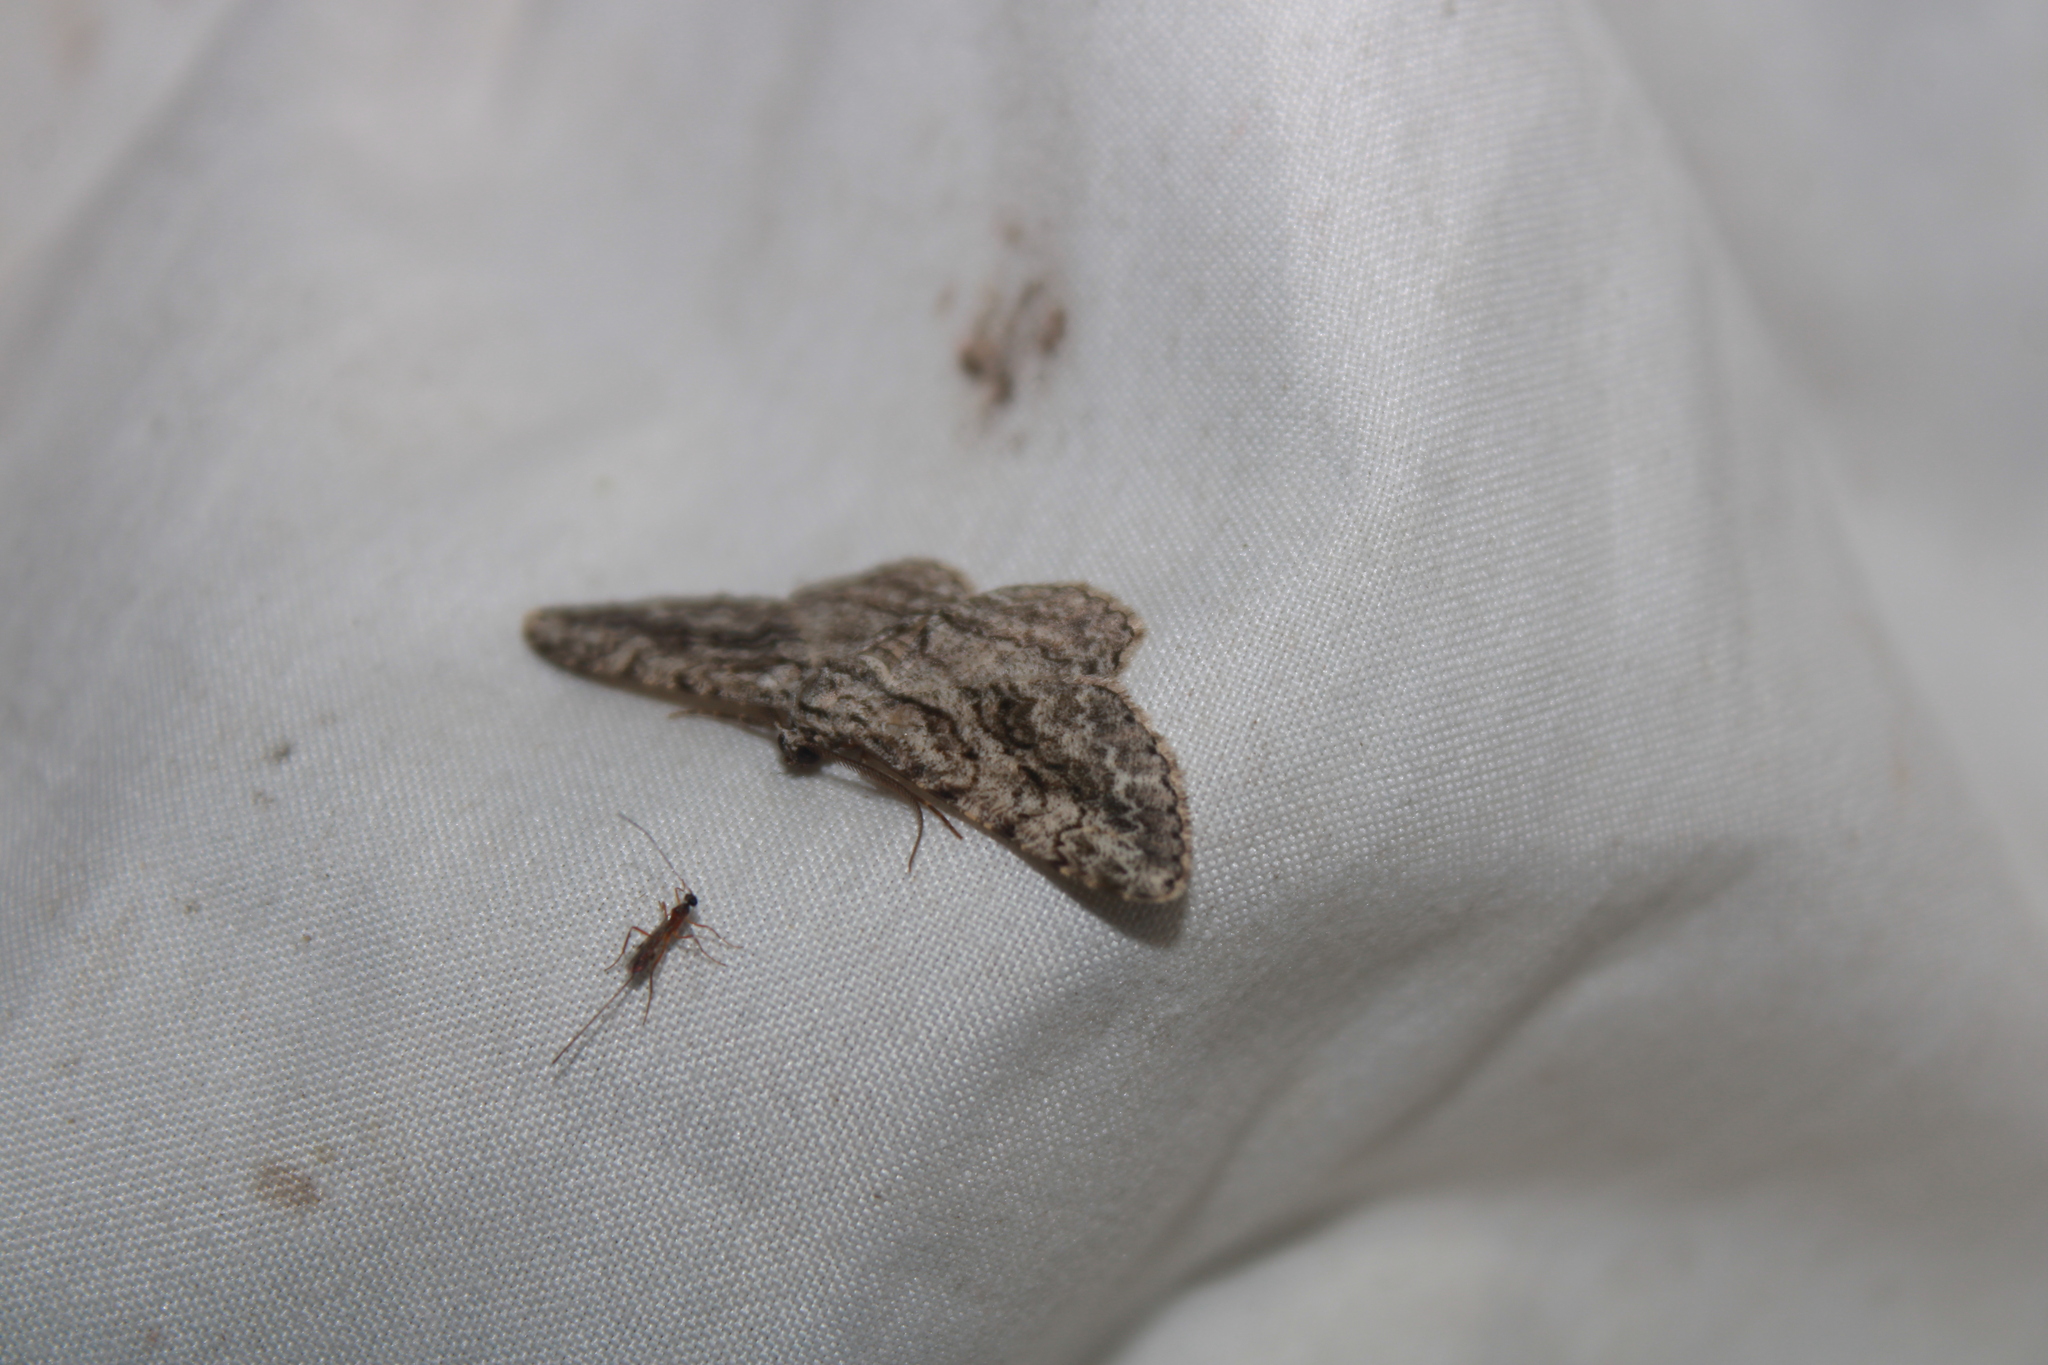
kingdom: Animalia
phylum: Arthropoda
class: Insecta
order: Lepidoptera
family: Geometridae
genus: Anavitrinella
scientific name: Anavitrinella pampinaria
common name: Common gray
